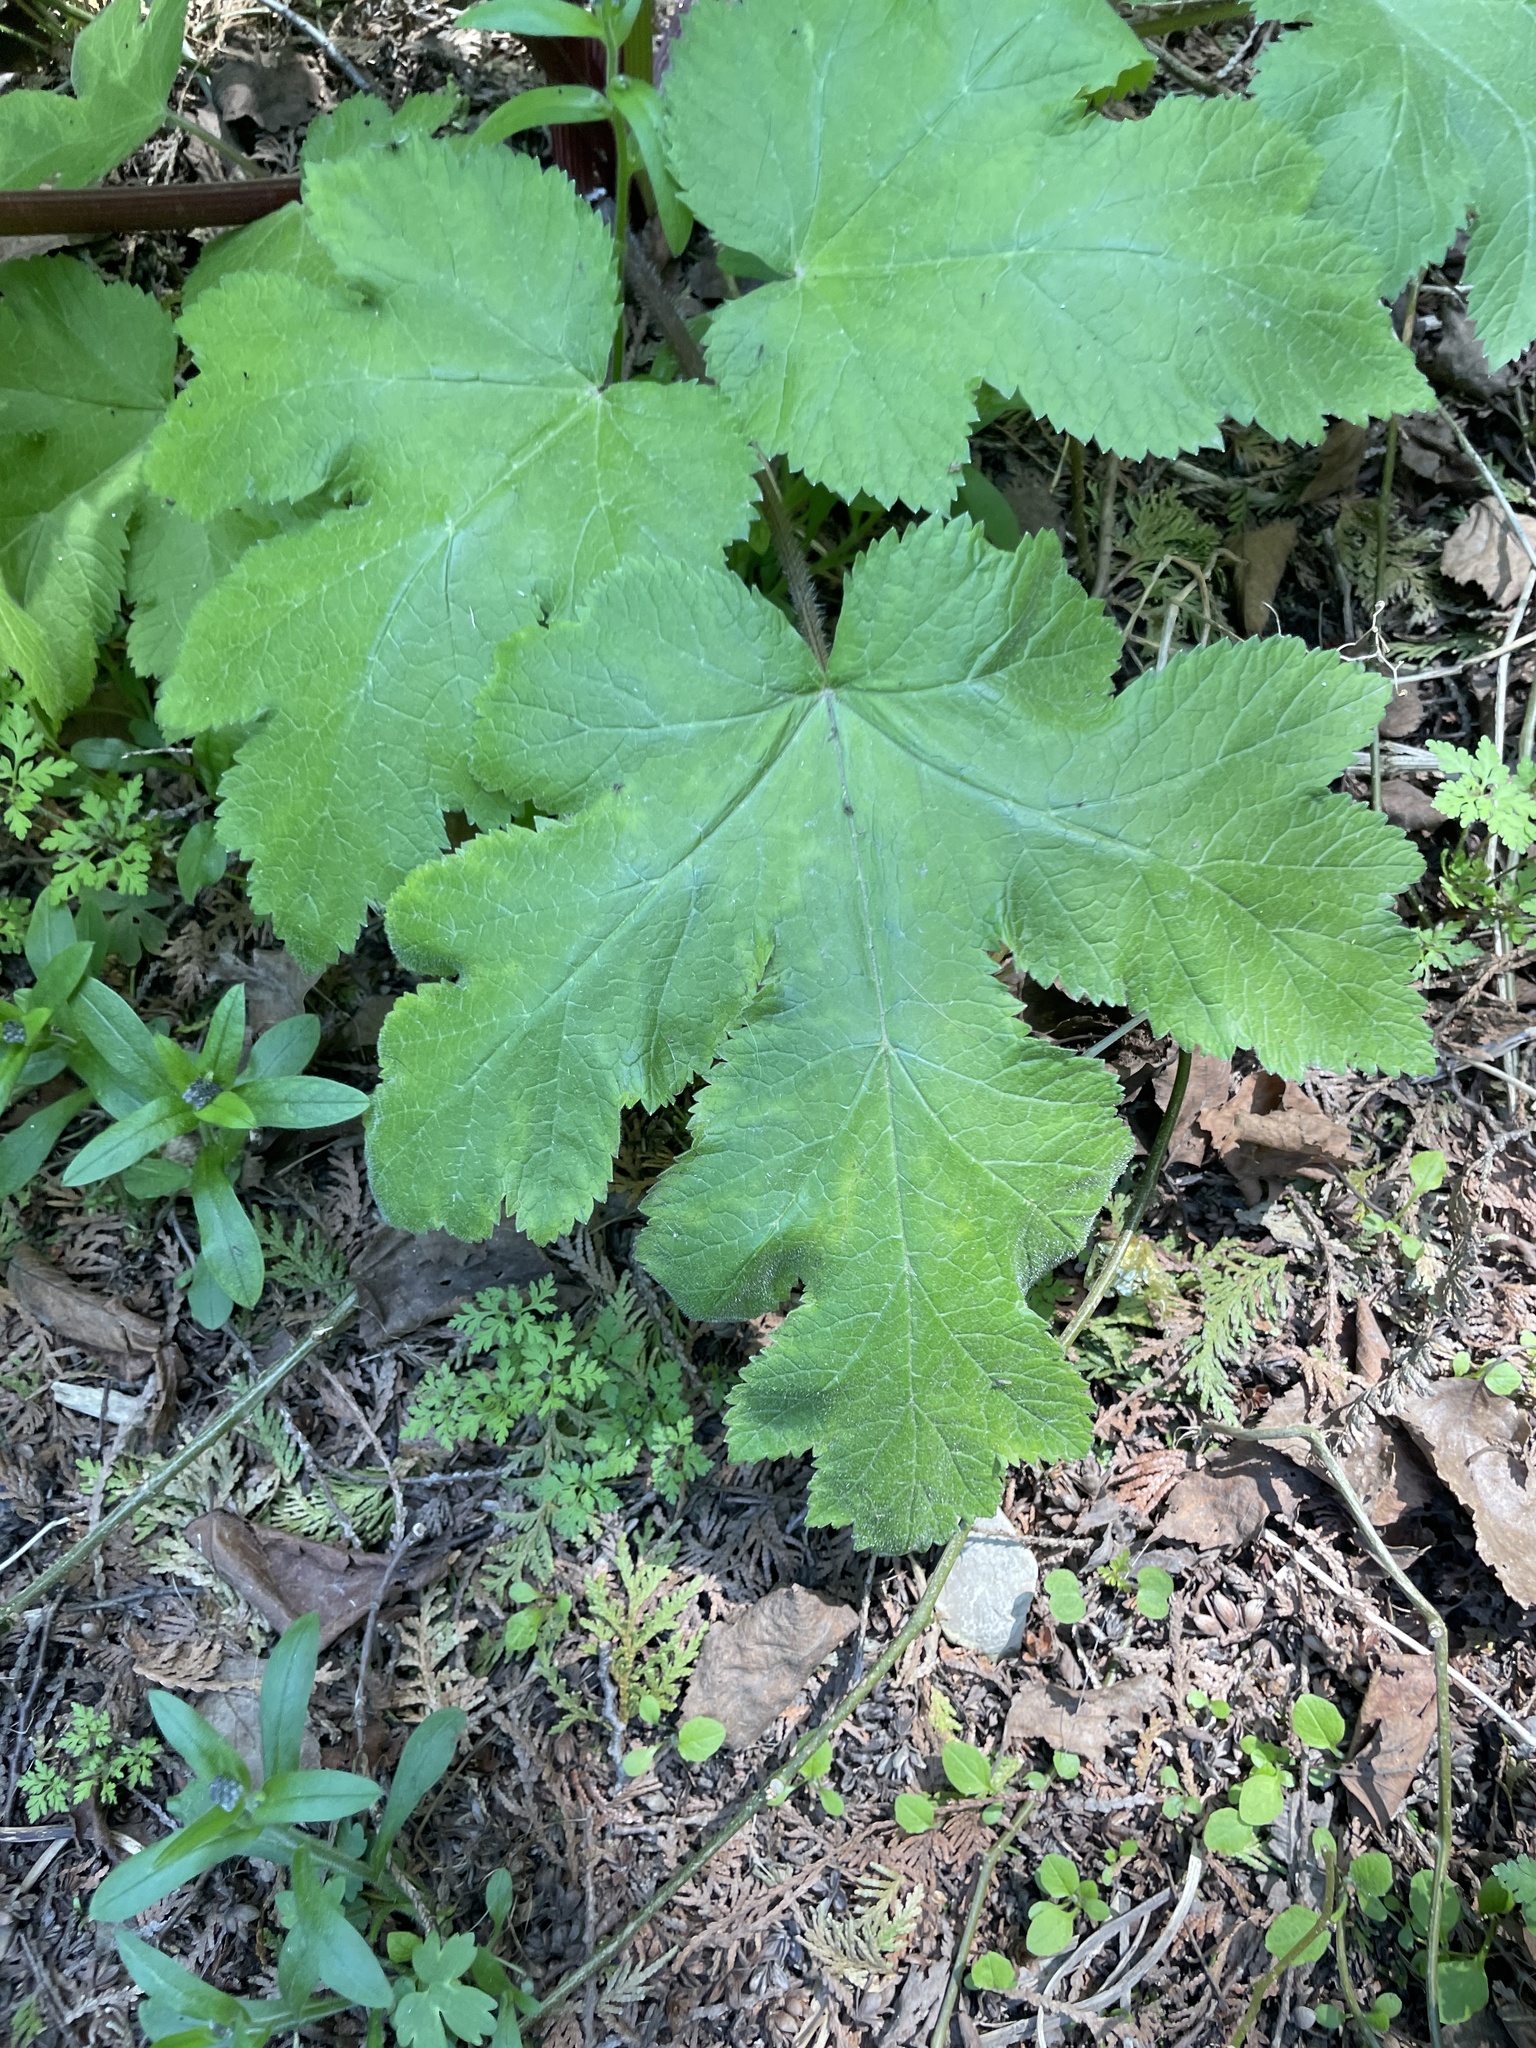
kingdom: Plantae
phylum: Tracheophyta
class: Magnoliopsida
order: Apiales
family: Apiaceae
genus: Heracleum
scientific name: Heracleum maximum
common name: American cow parsnip
